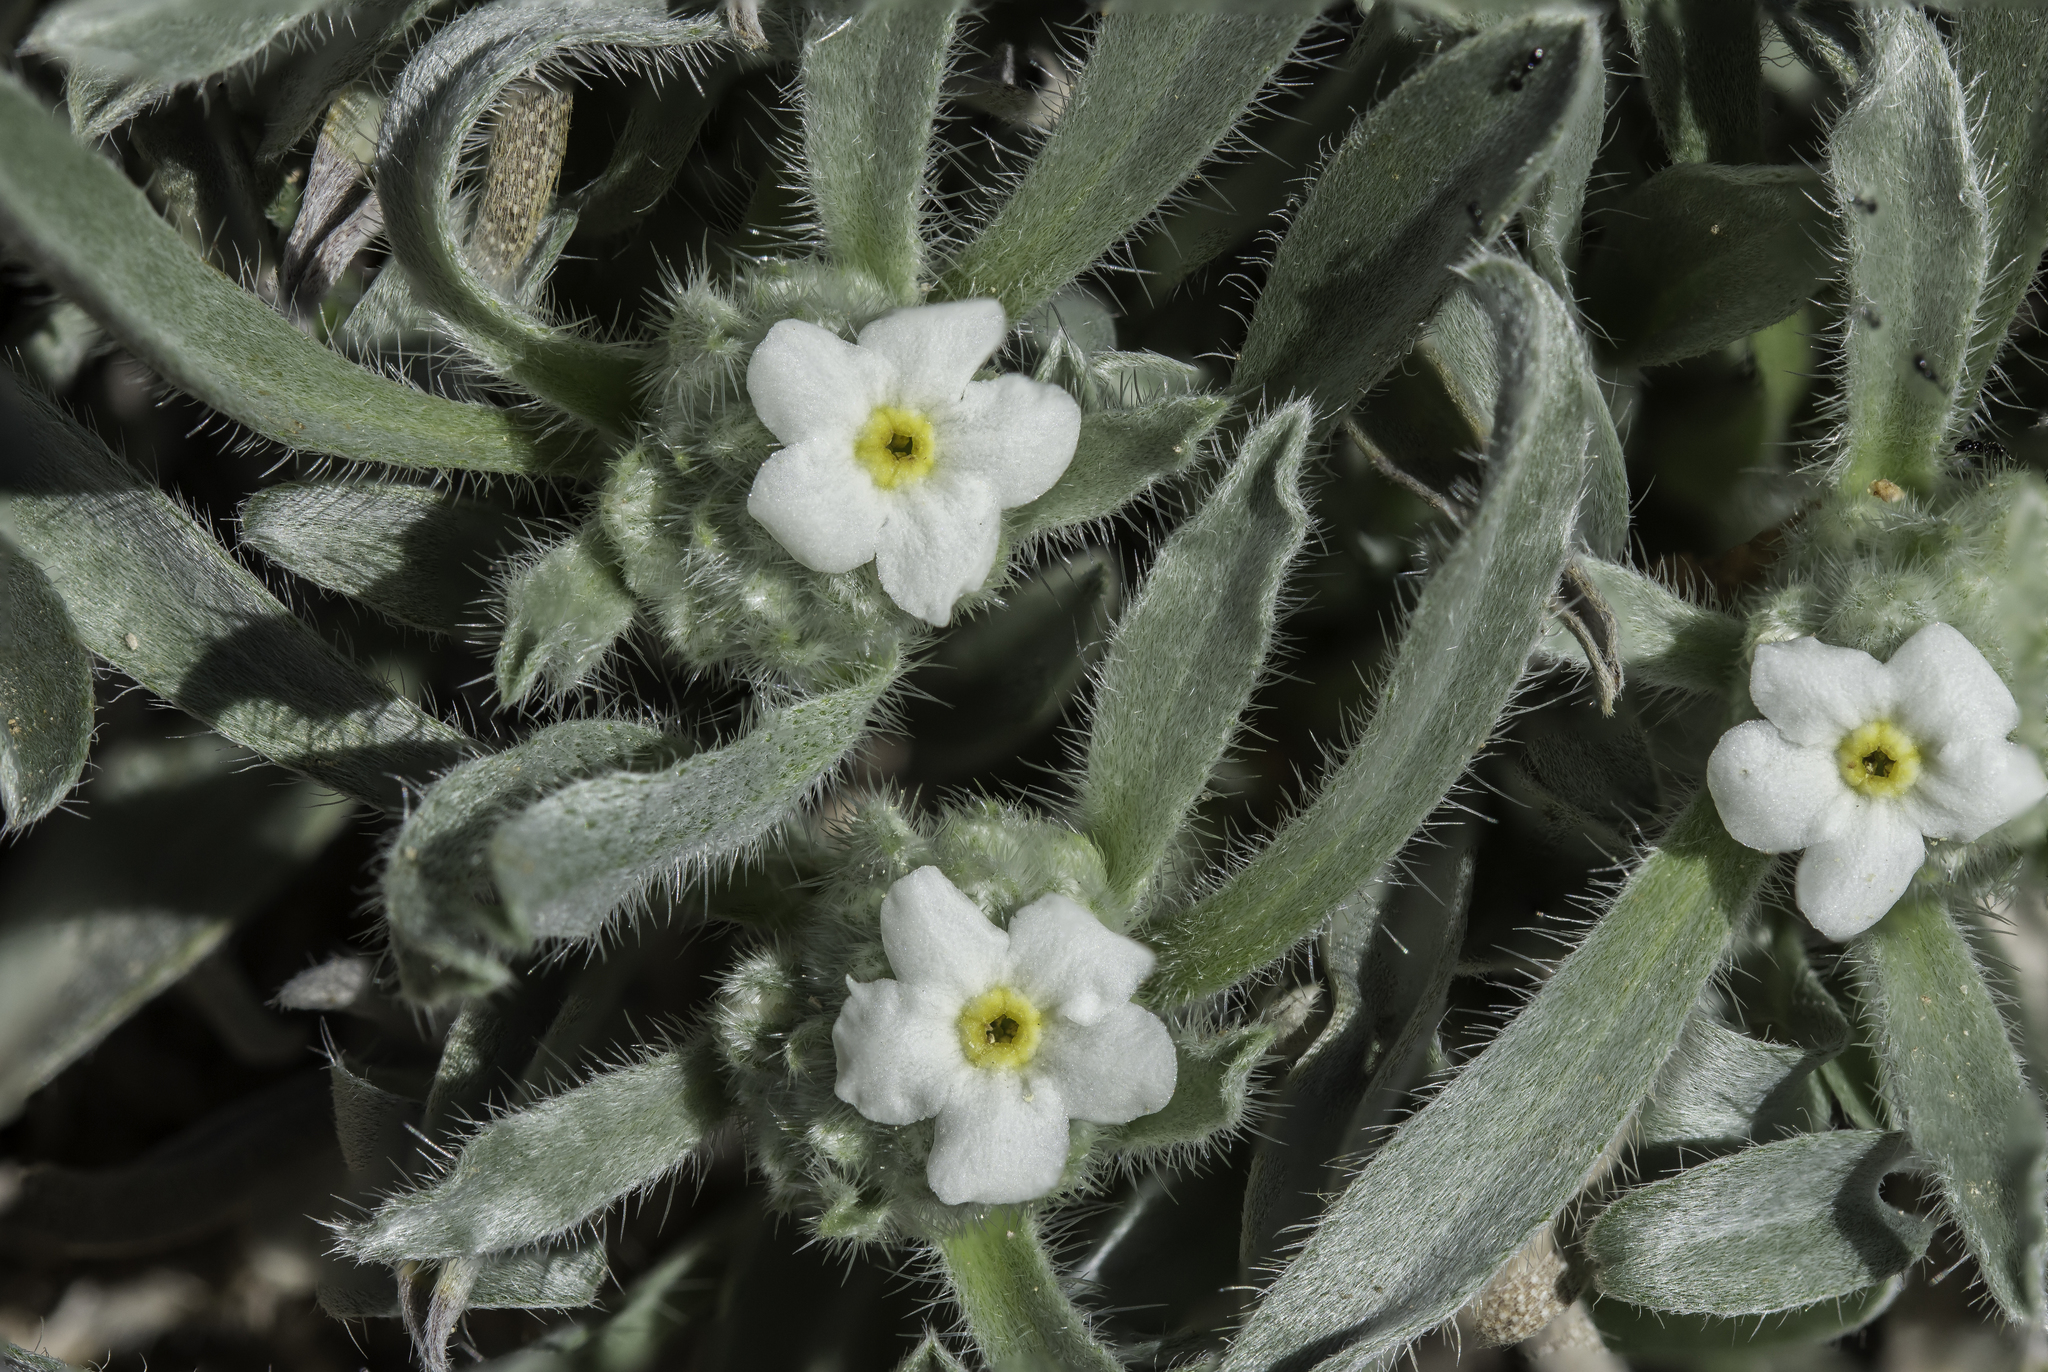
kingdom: Plantae
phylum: Tracheophyta
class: Magnoliopsida
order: Boraginales
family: Boraginaceae
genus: Oreocarya
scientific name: Oreocarya suffruticosa
